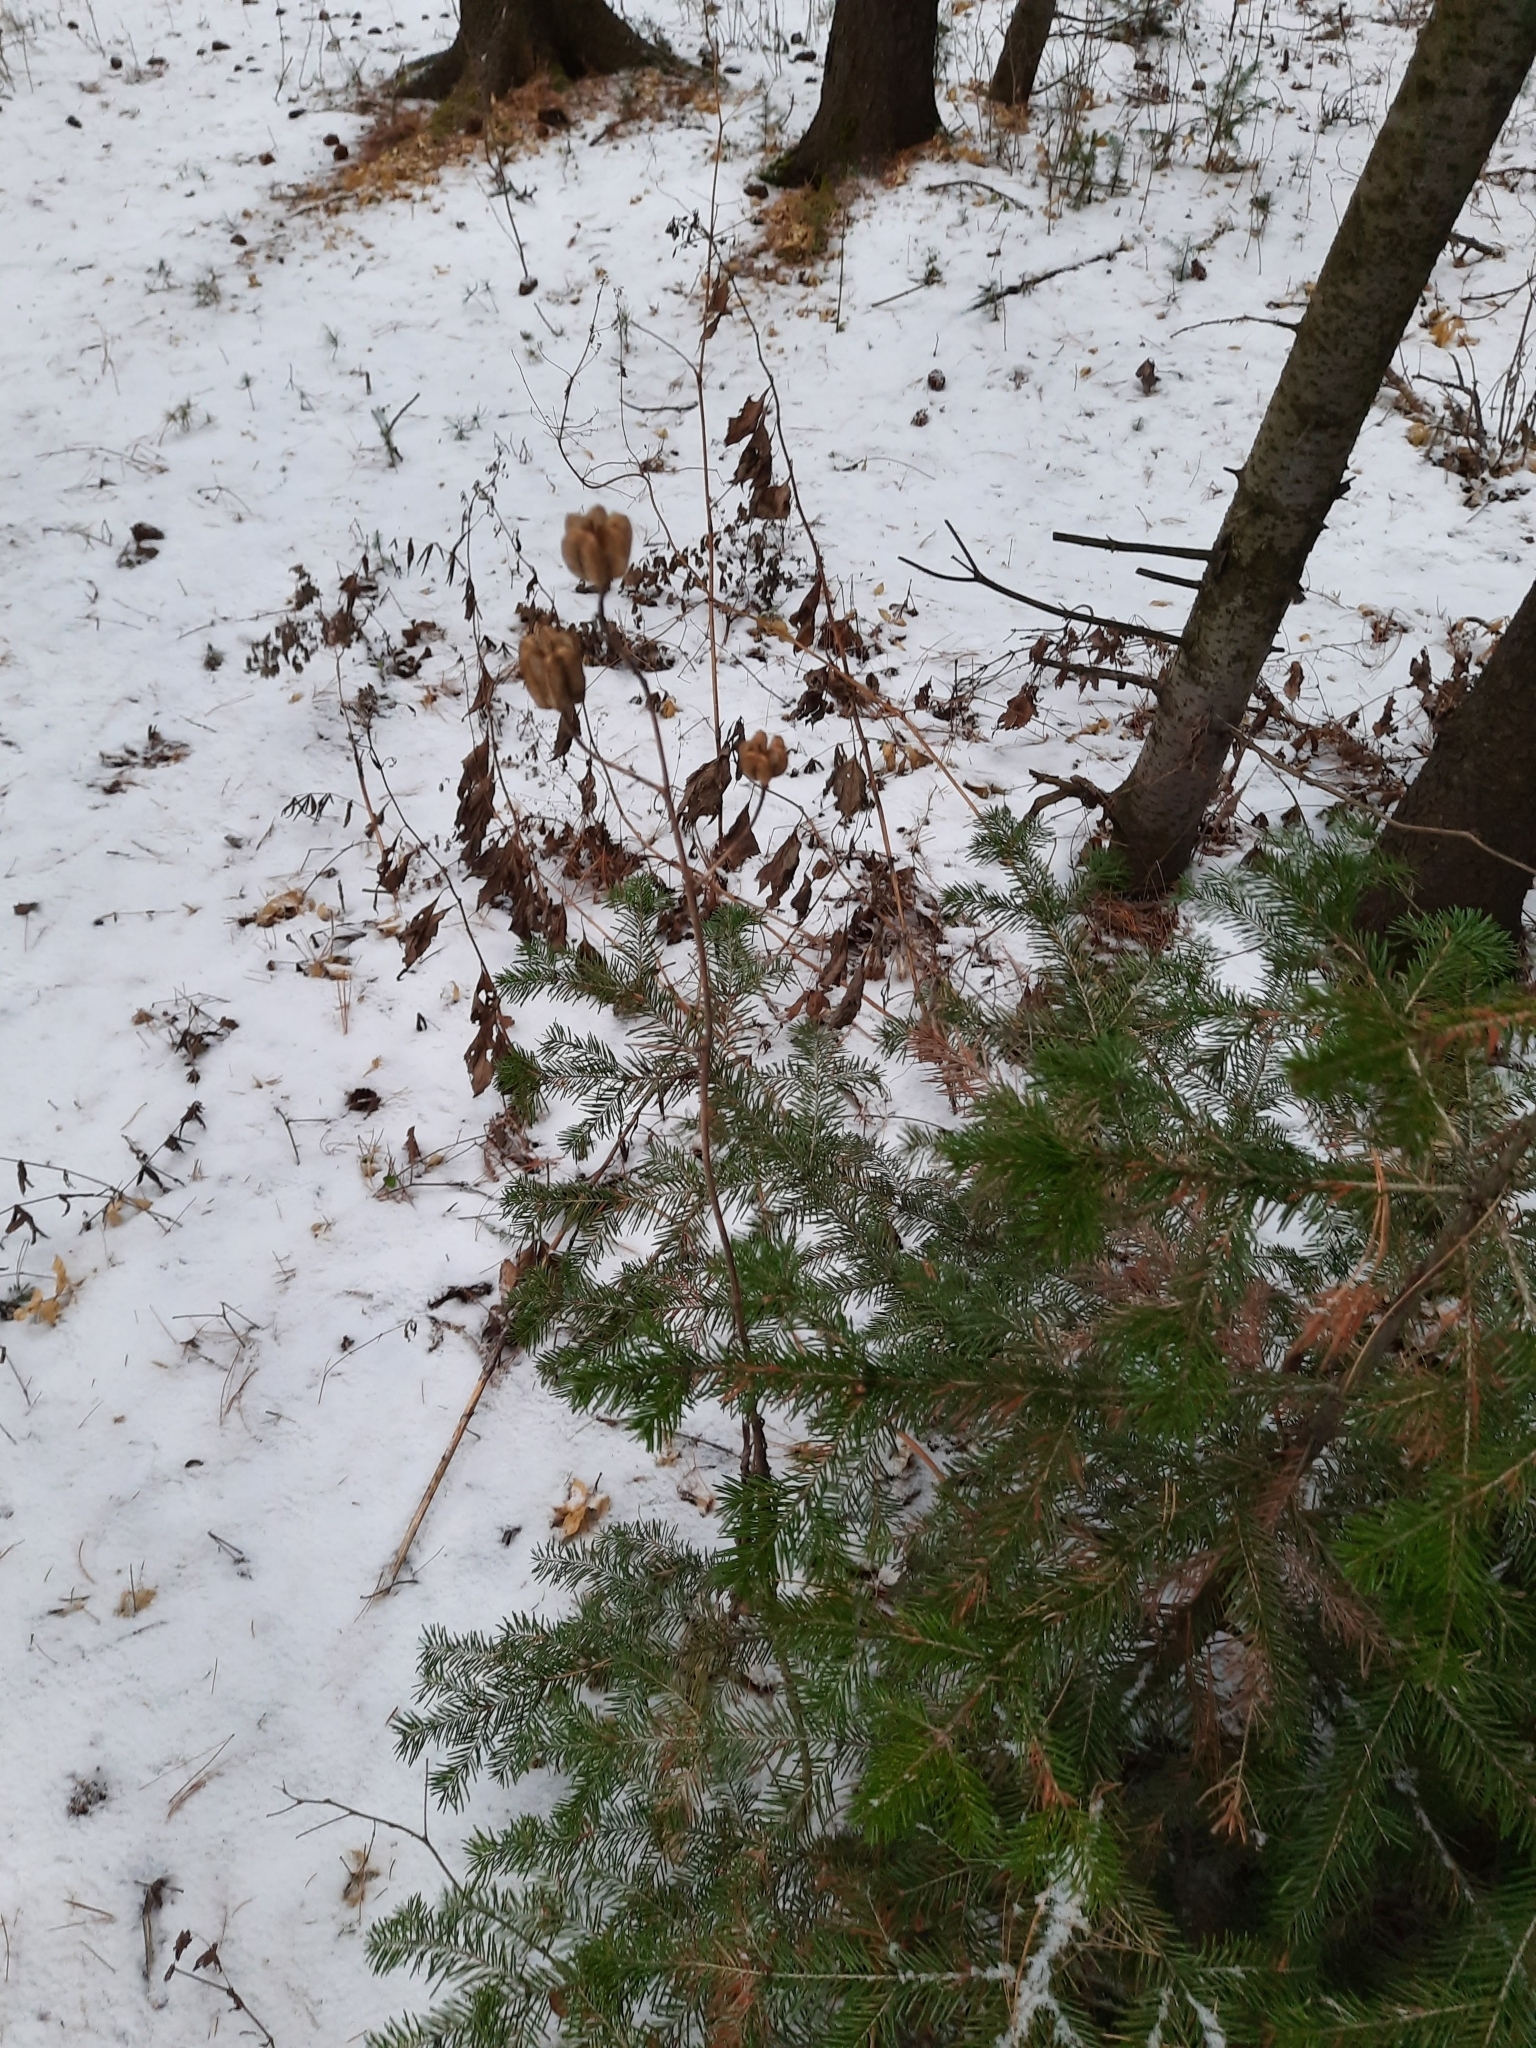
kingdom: Plantae
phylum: Tracheophyta
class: Liliopsida
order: Liliales
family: Liliaceae
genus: Lilium
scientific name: Lilium martagon
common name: Martagon lily
